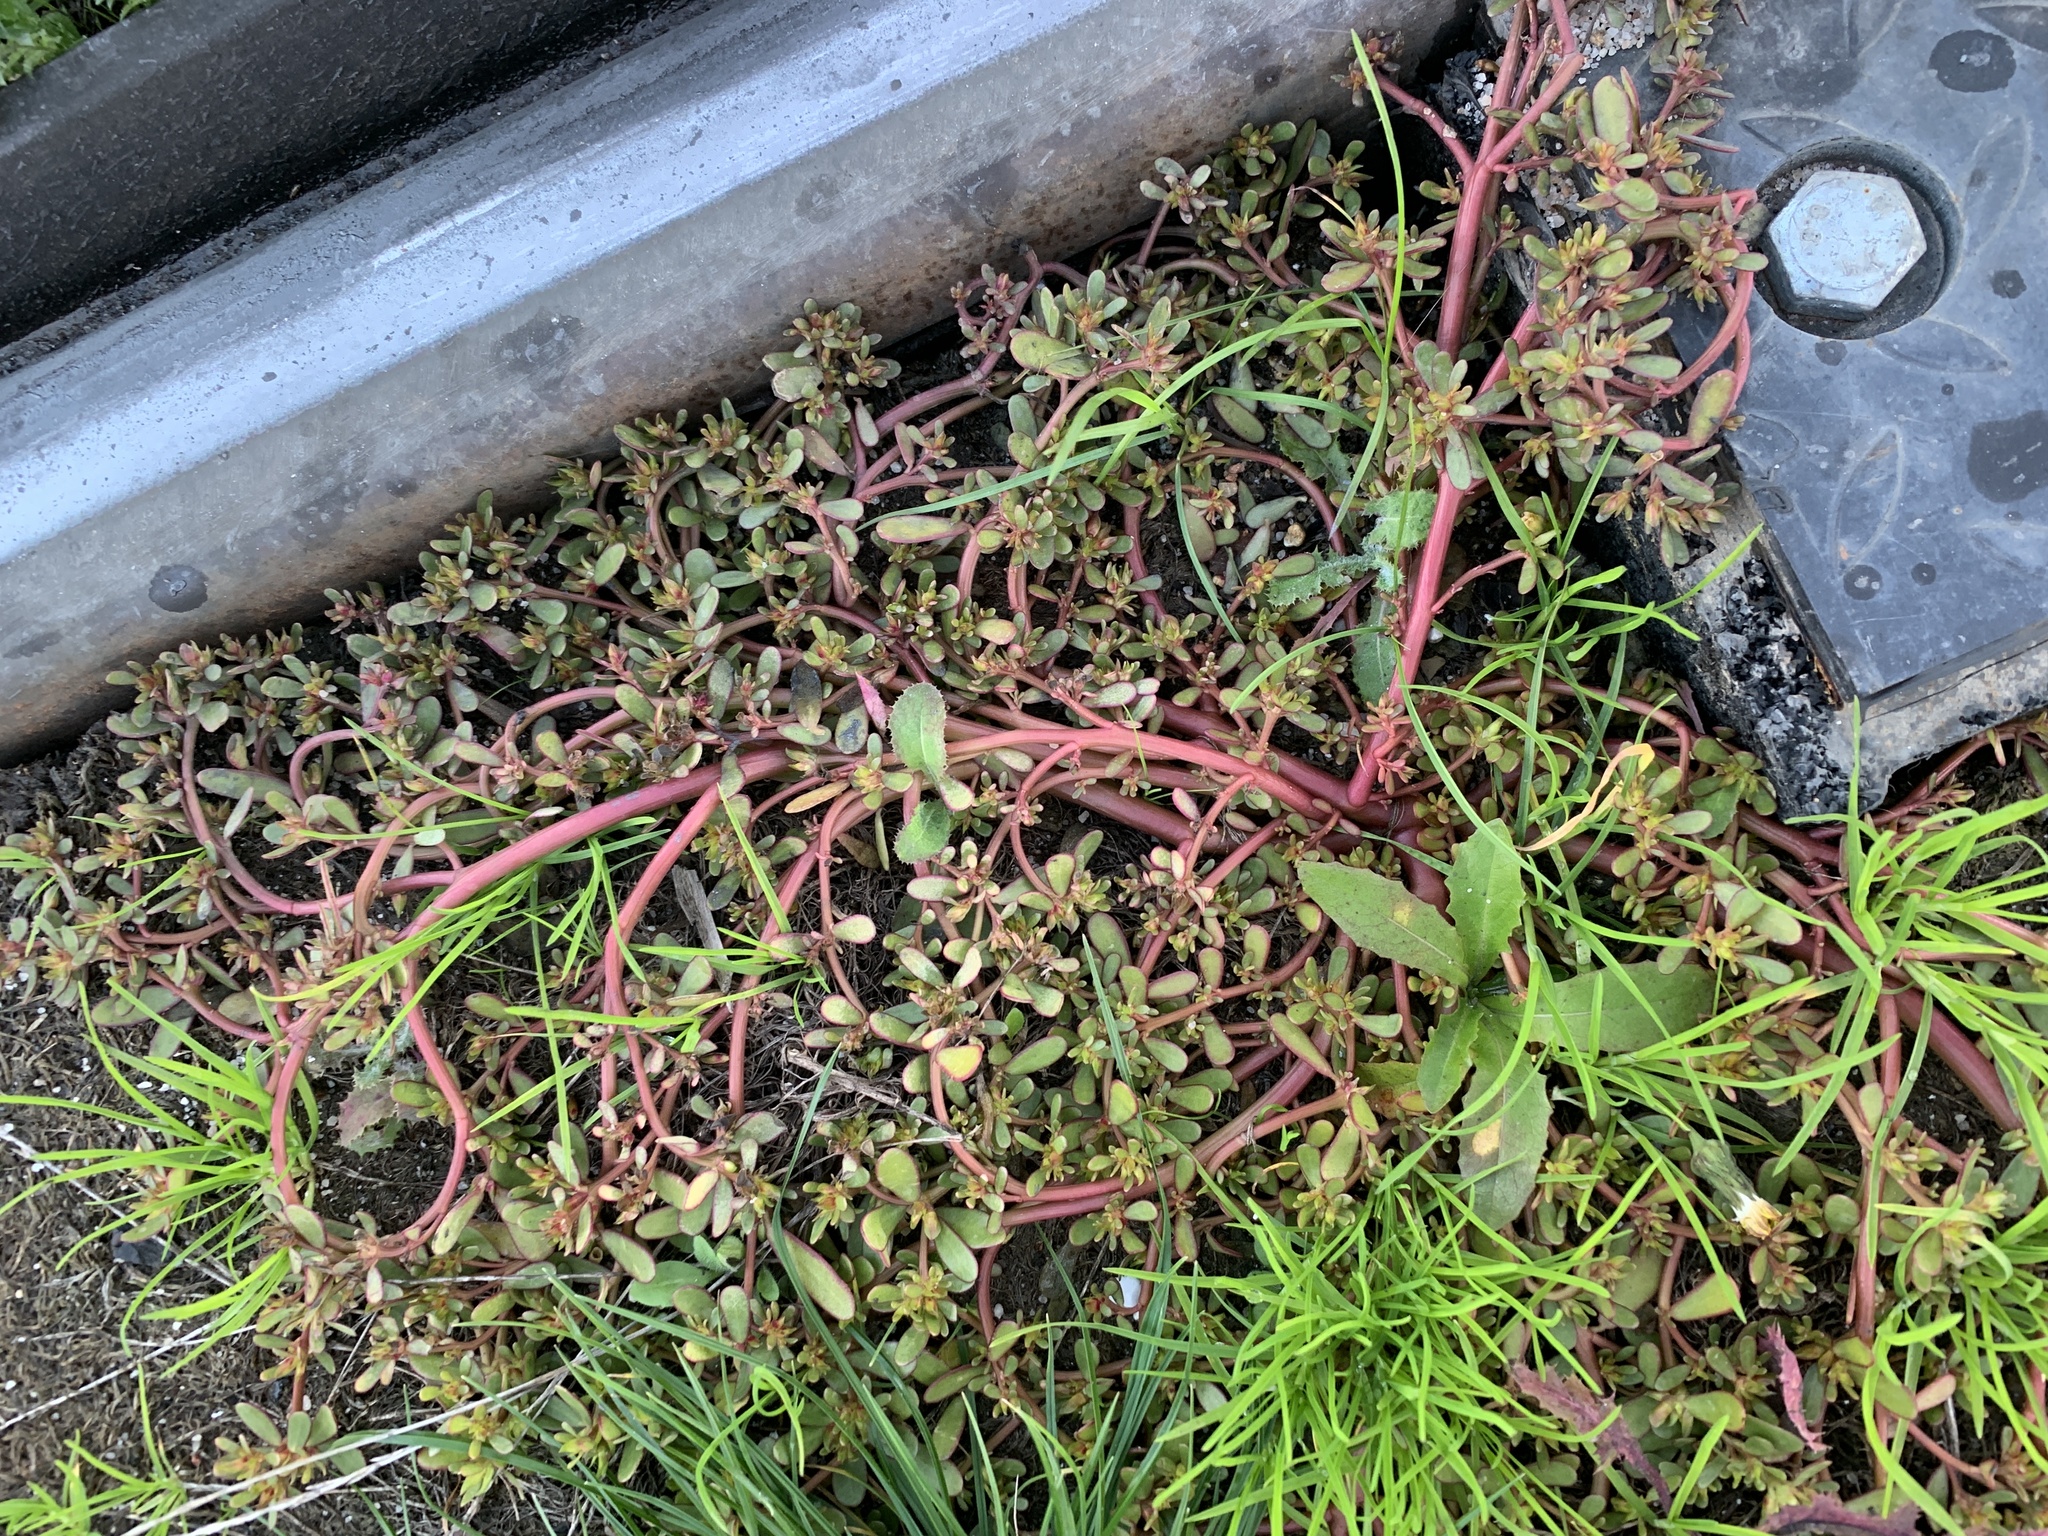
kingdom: Plantae
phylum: Tracheophyta
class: Magnoliopsida
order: Caryophyllales
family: Portulacaceae
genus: Portulaca
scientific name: Portulaca oleracea
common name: Common purslane
